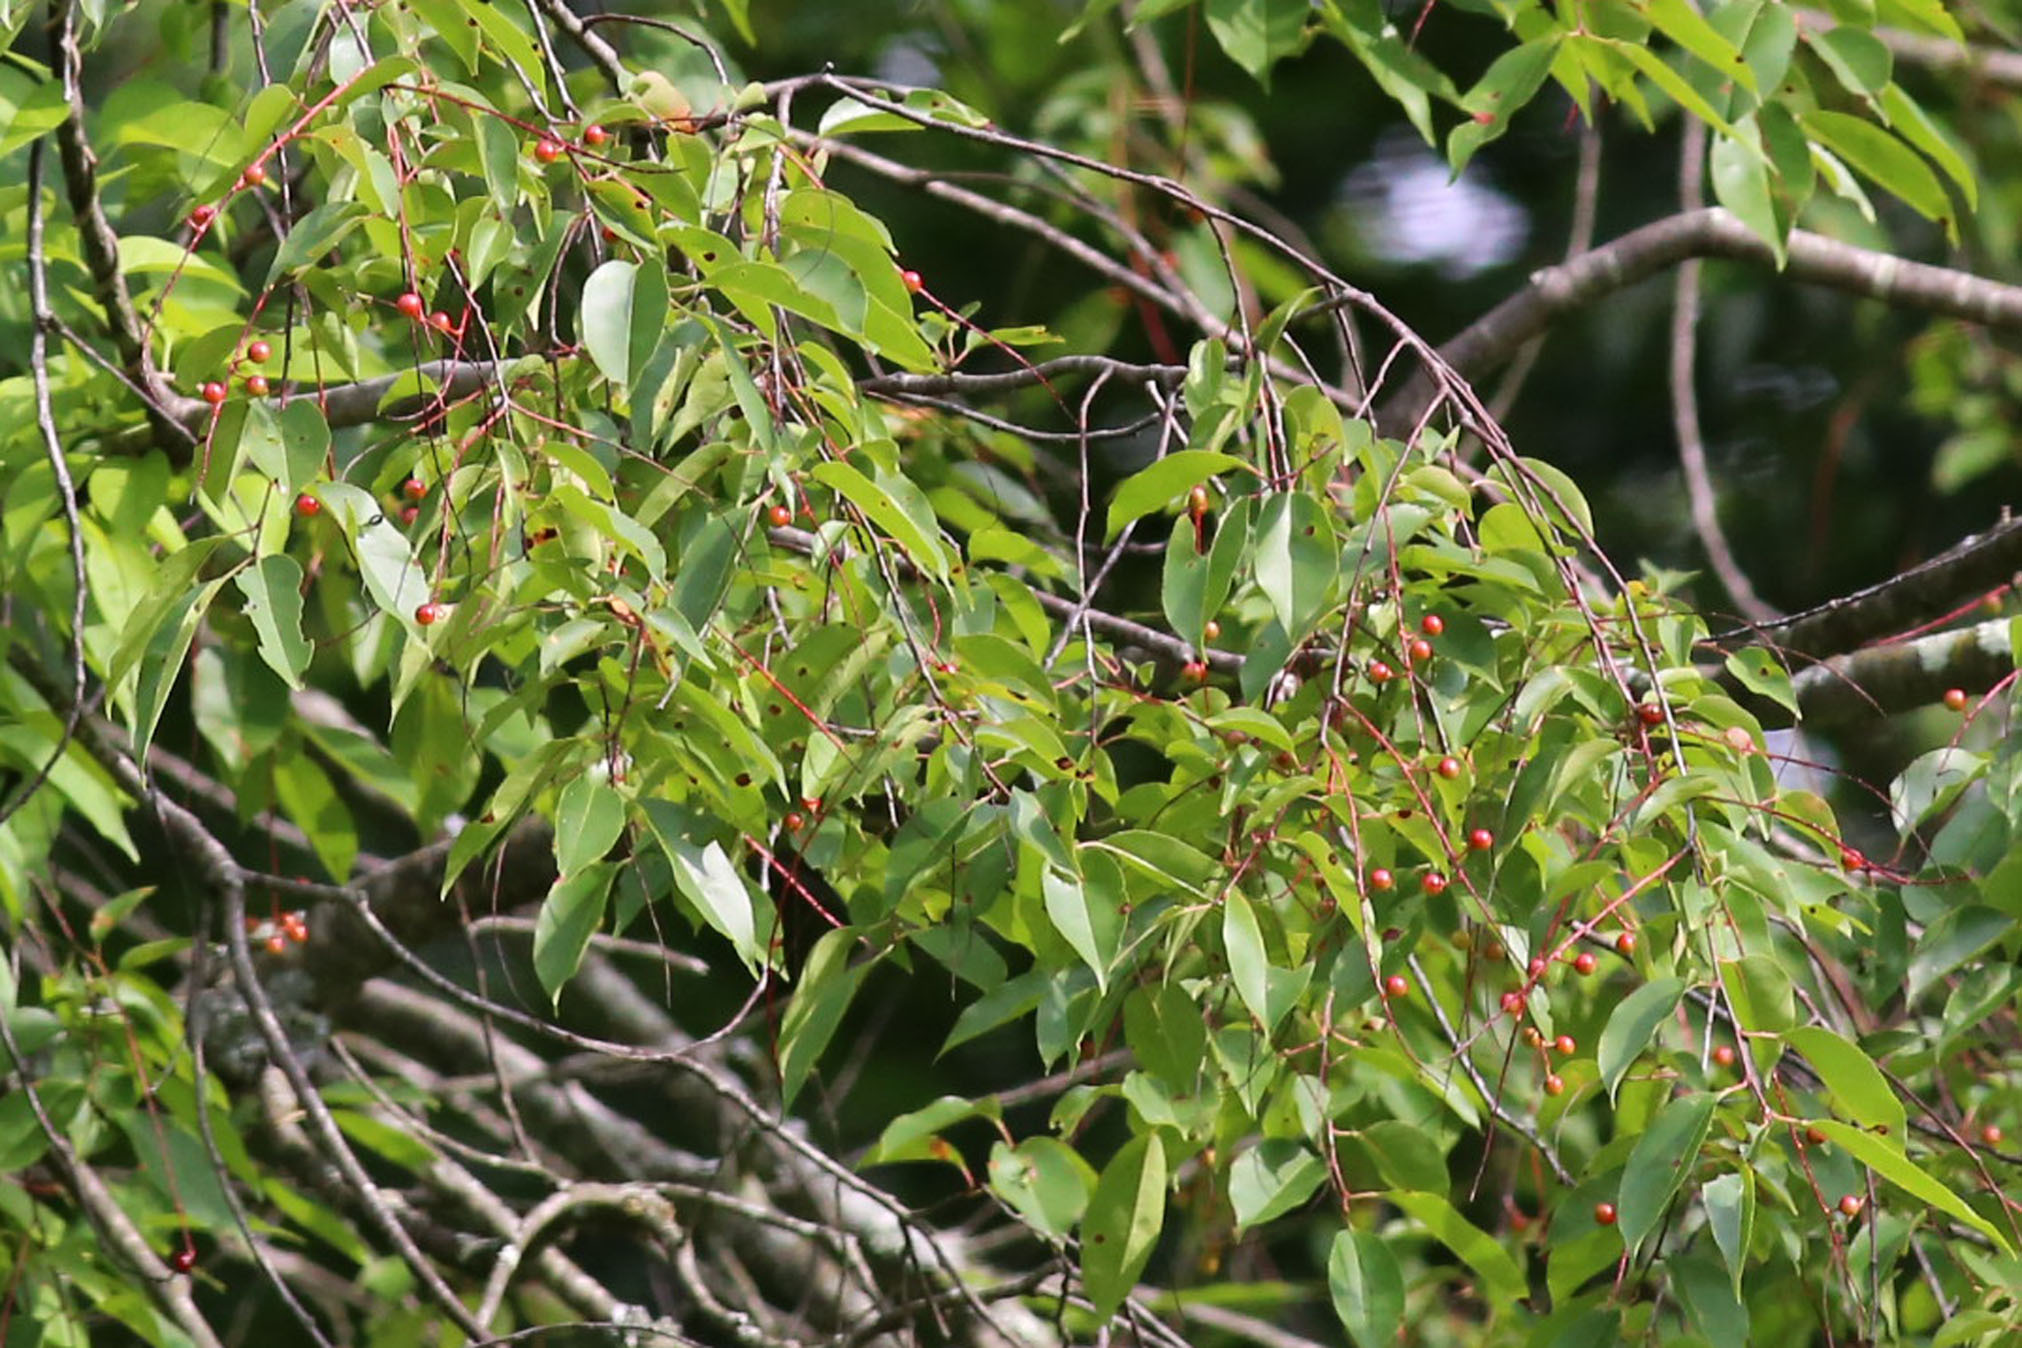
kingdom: Plantae
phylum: Tracheophyta
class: Magnoliopsida
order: Rosales
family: Rosaceae
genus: Prunus
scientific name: Prunus serotina
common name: Black cherry
